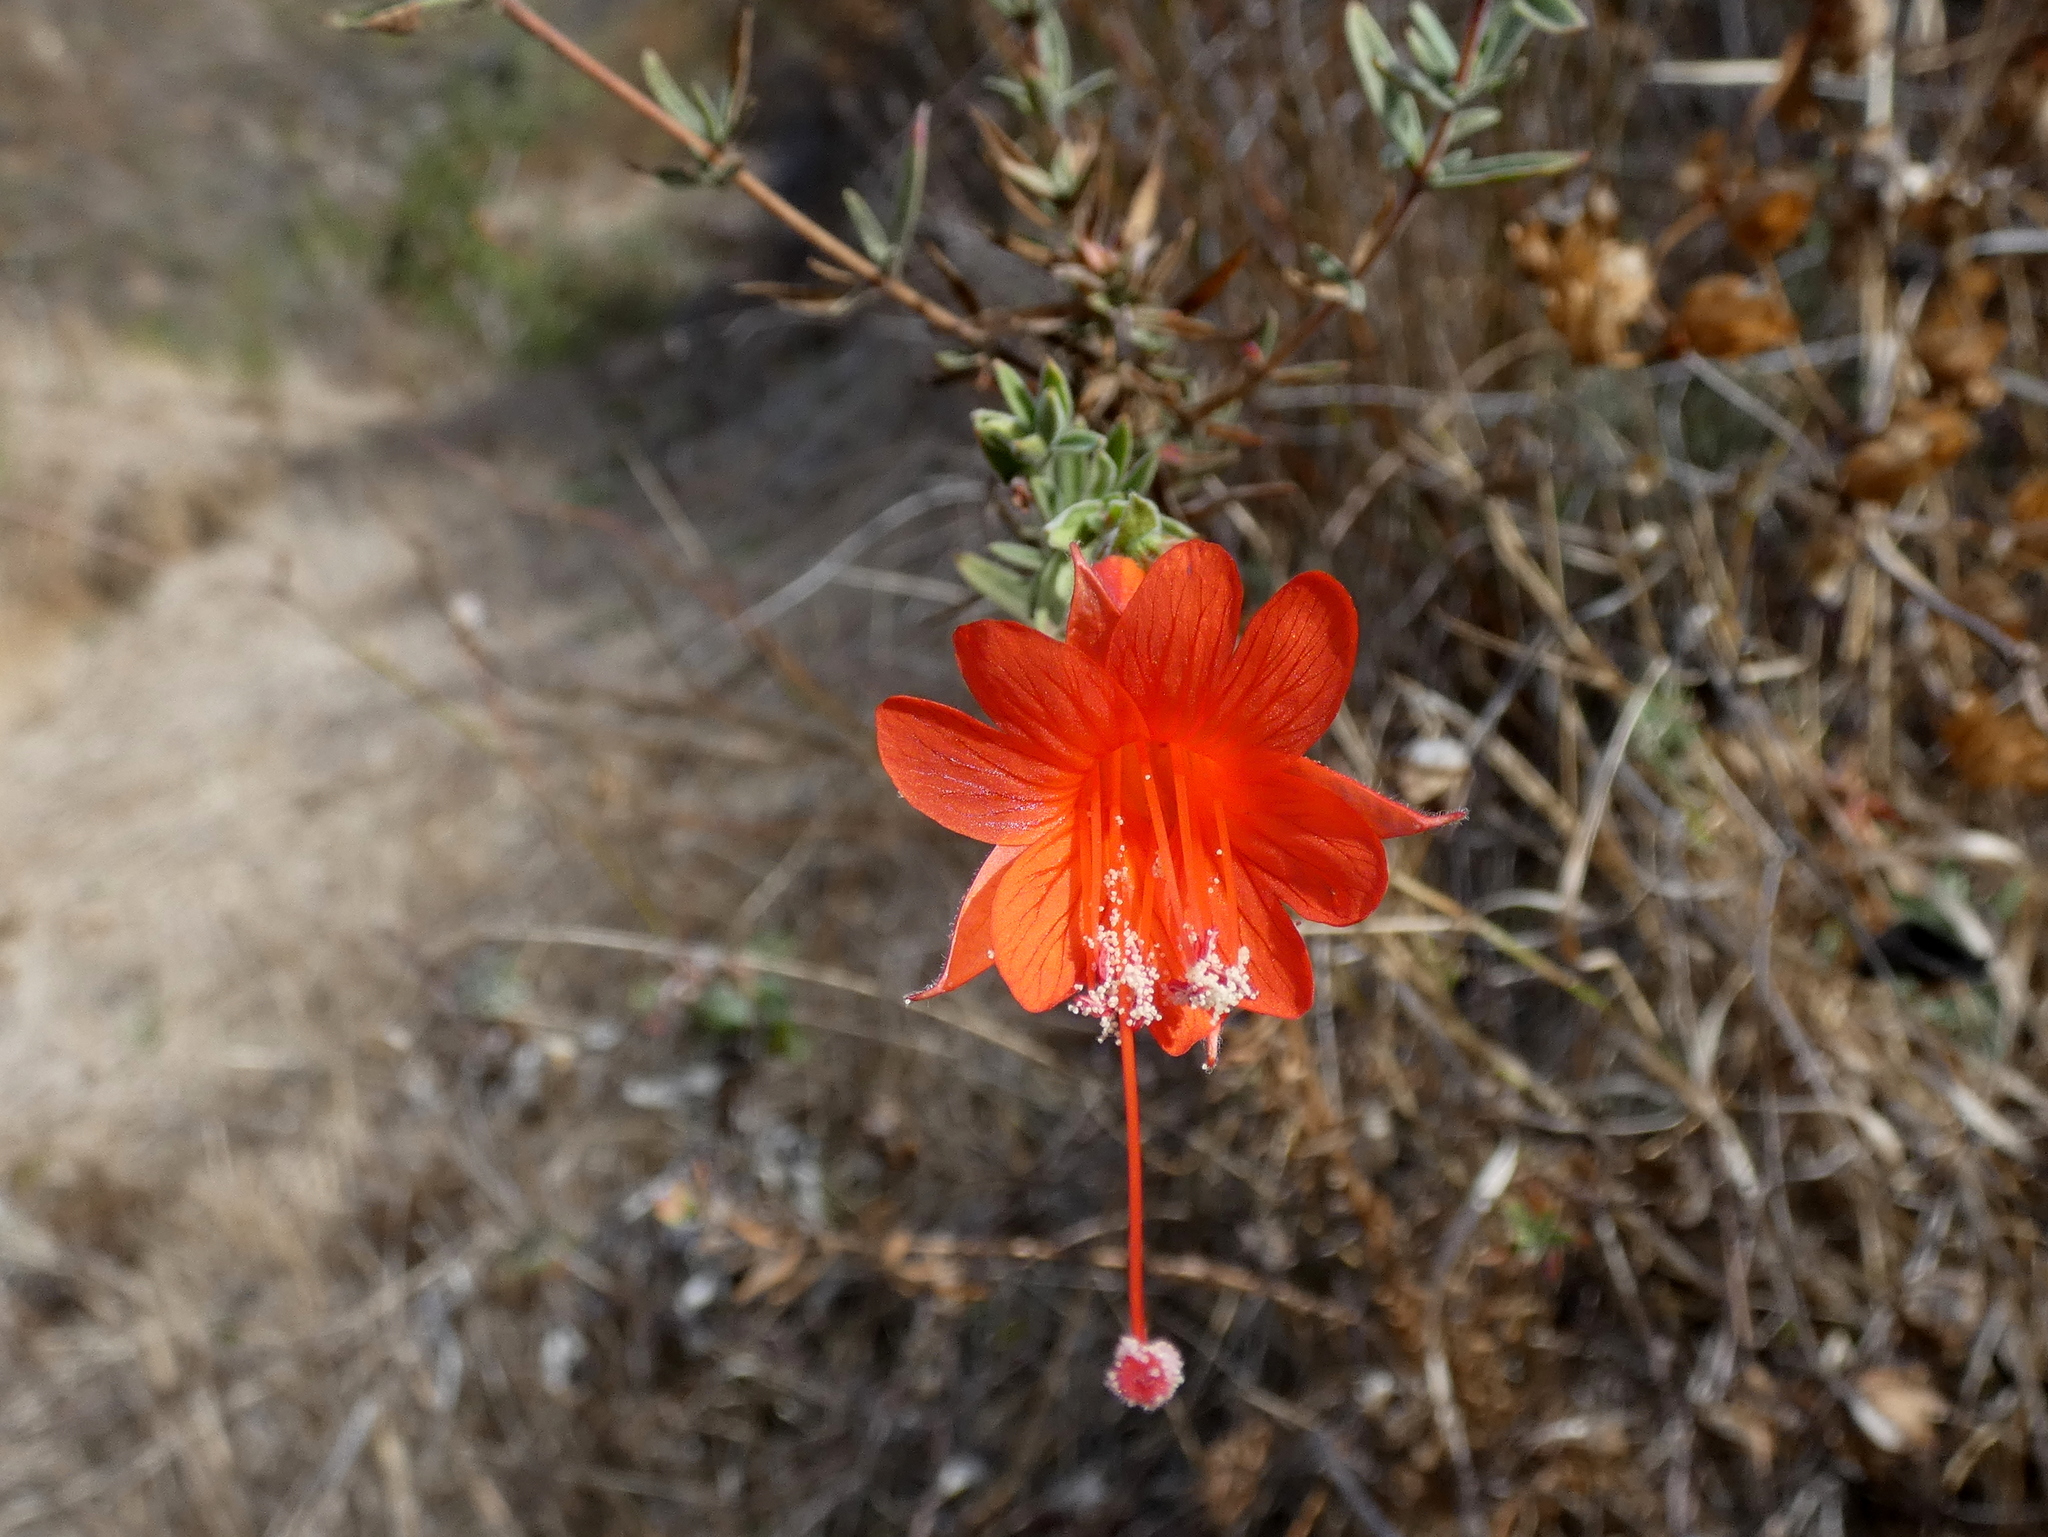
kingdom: Plantae
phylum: Tracheophyta
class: Magnoliopsida
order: Myrtales
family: Onagraceae
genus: Epilobium
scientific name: Epilobium canum
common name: California-fuchsia
